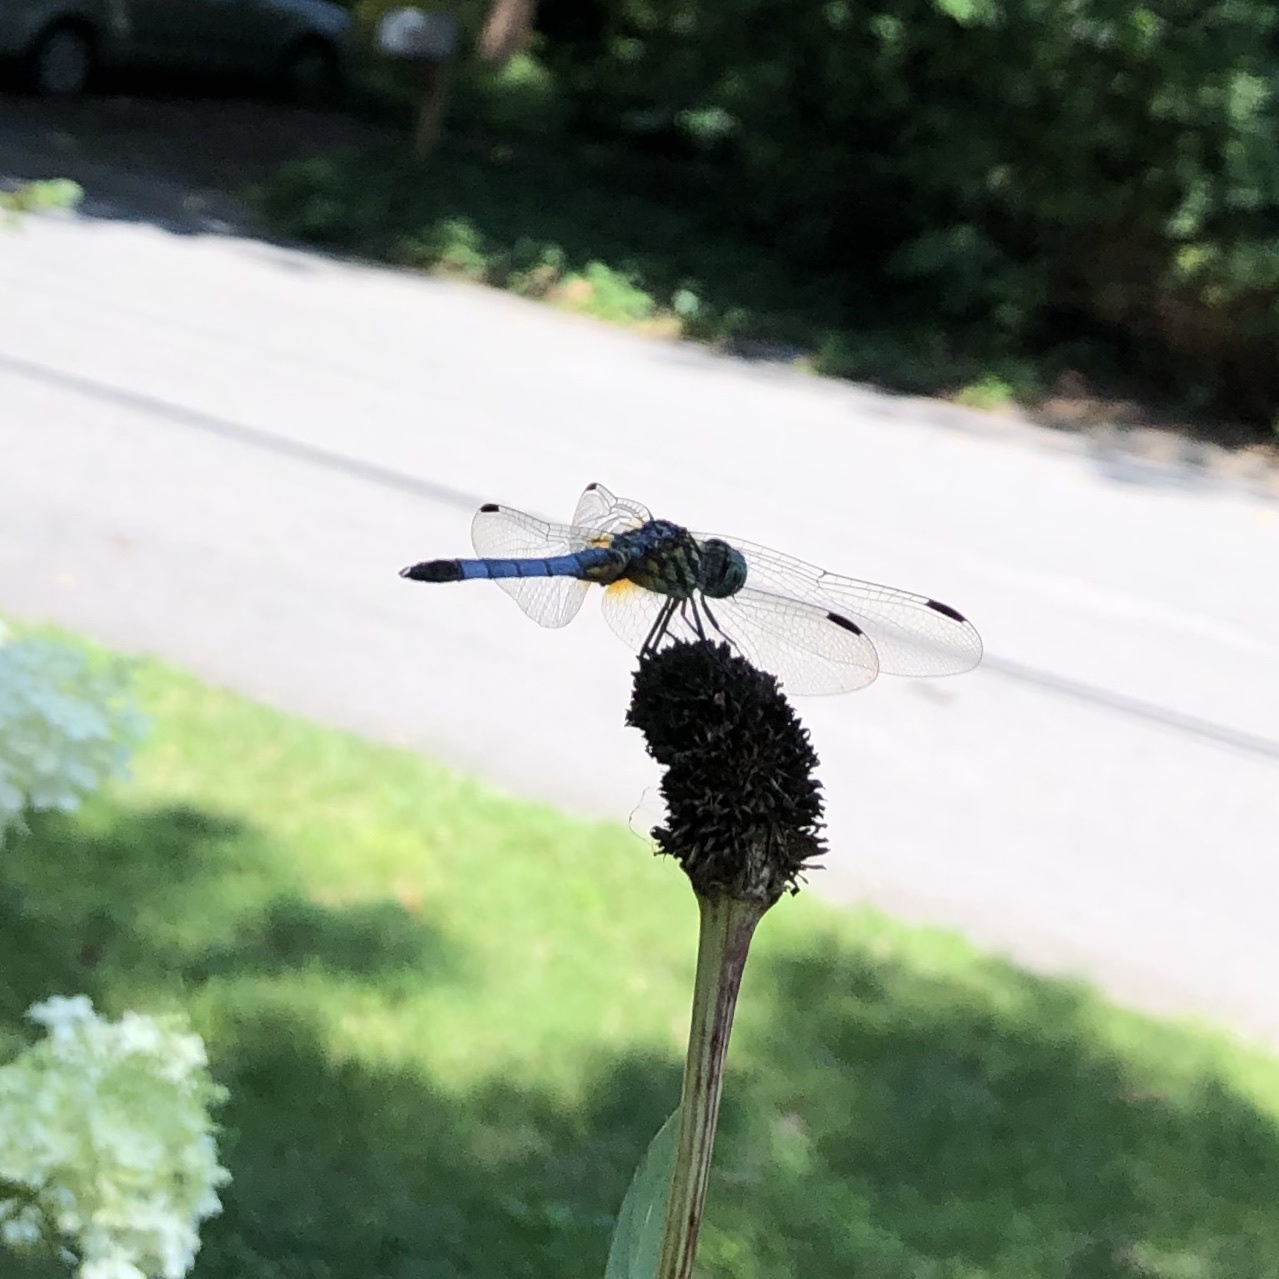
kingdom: Animalia
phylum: Arthropoda
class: Insecta
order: Odonata
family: Libellulidae
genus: Pachydiplax
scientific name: Pachydiplax longipennis
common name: Blue dasher
